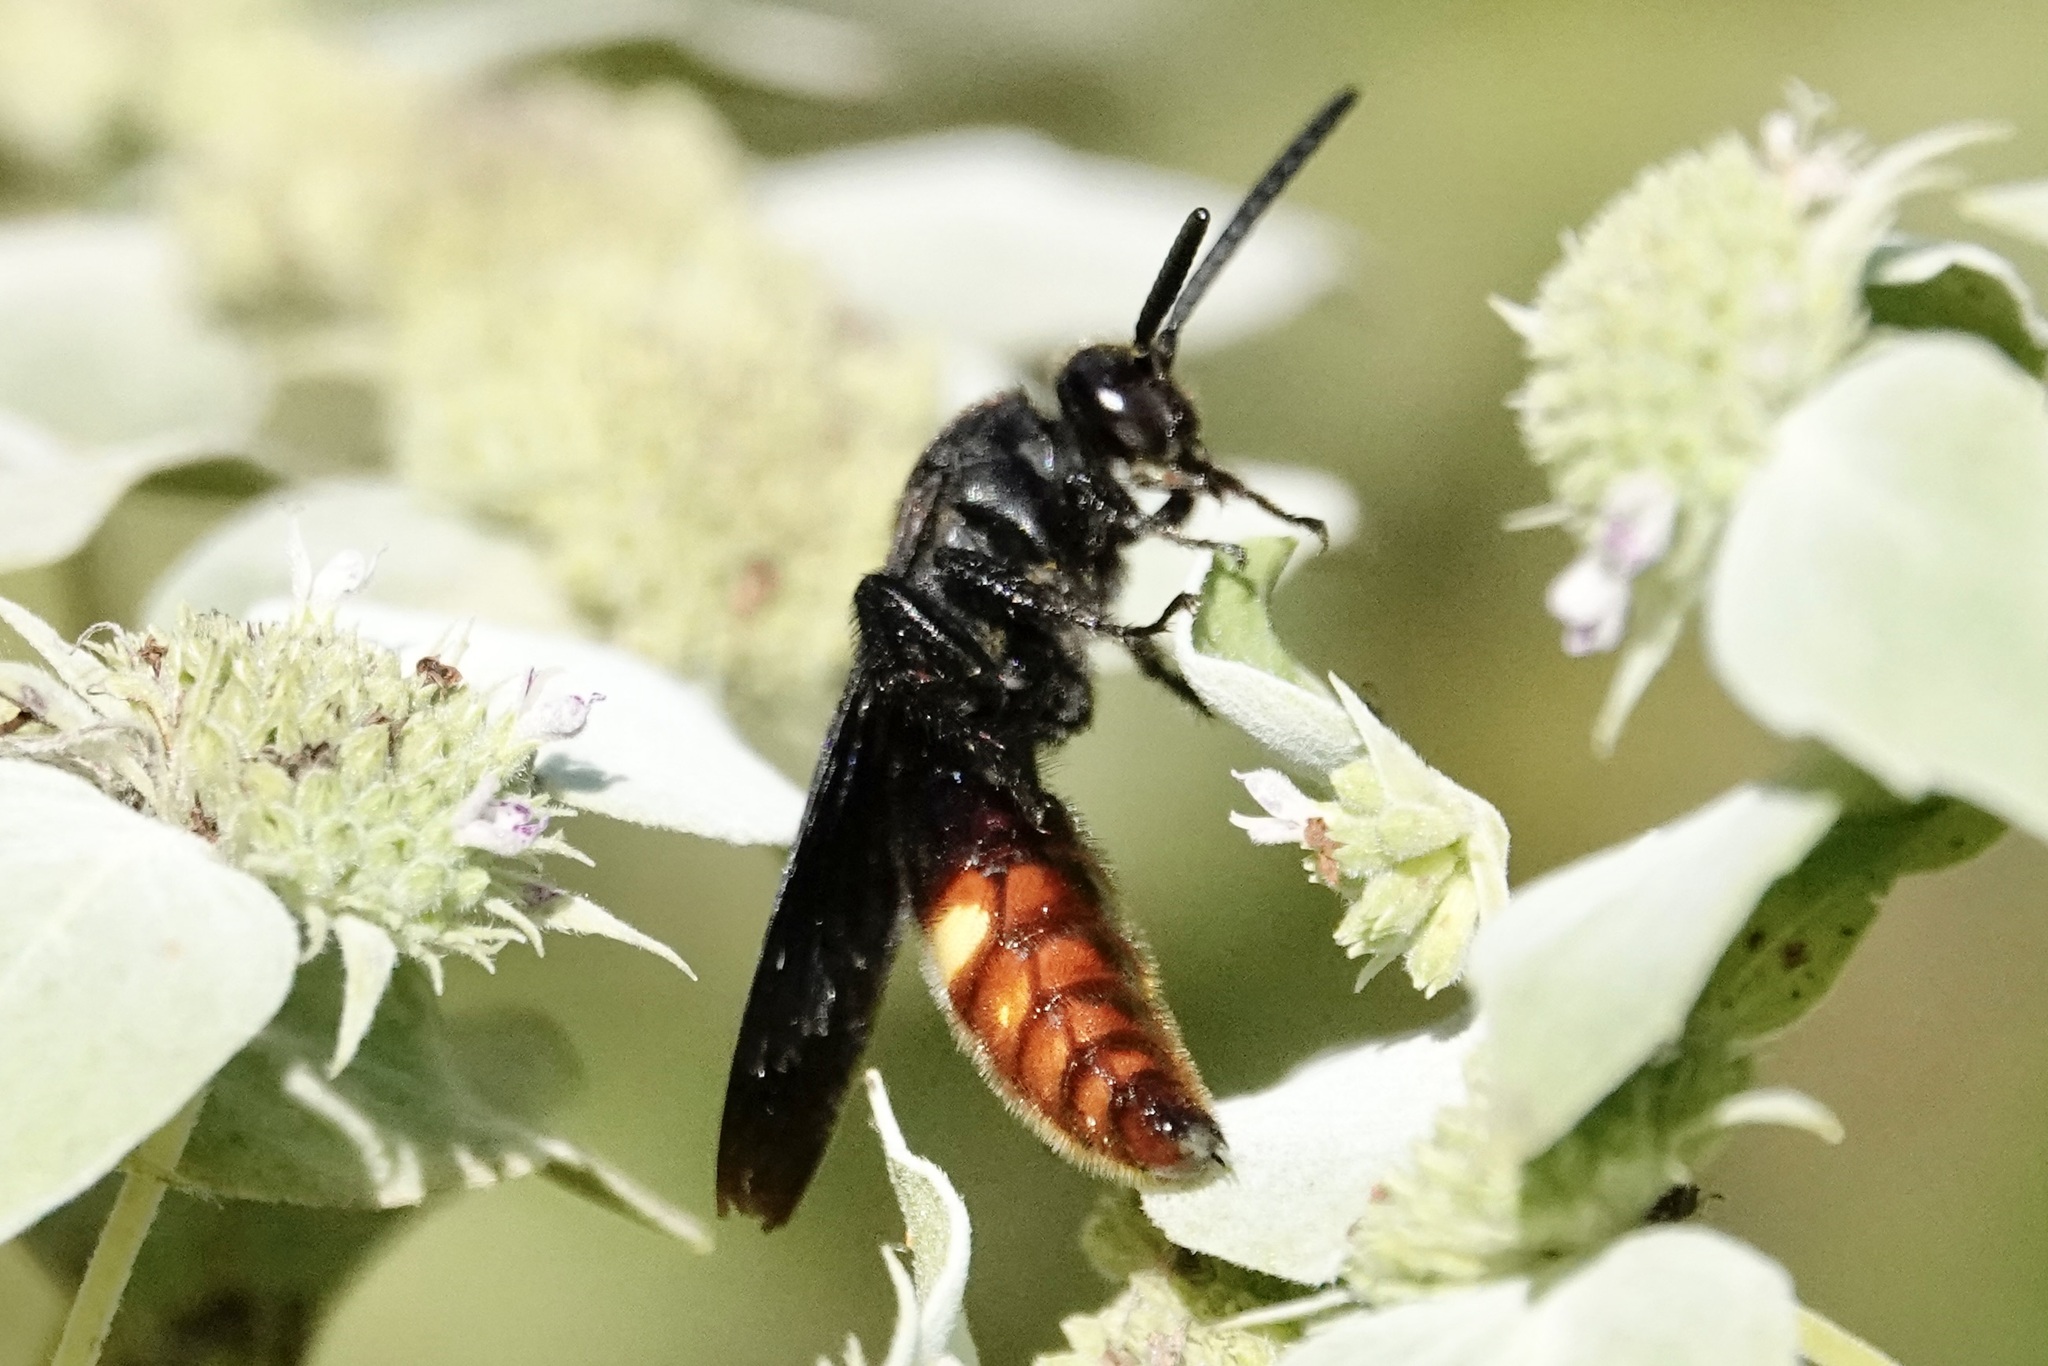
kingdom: Animalia
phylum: Arthropoda
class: Insecta
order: Hymenoptera
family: Scoliidae
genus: Scolia
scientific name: Scolia dubia
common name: Blue-winged scoliid wasp
